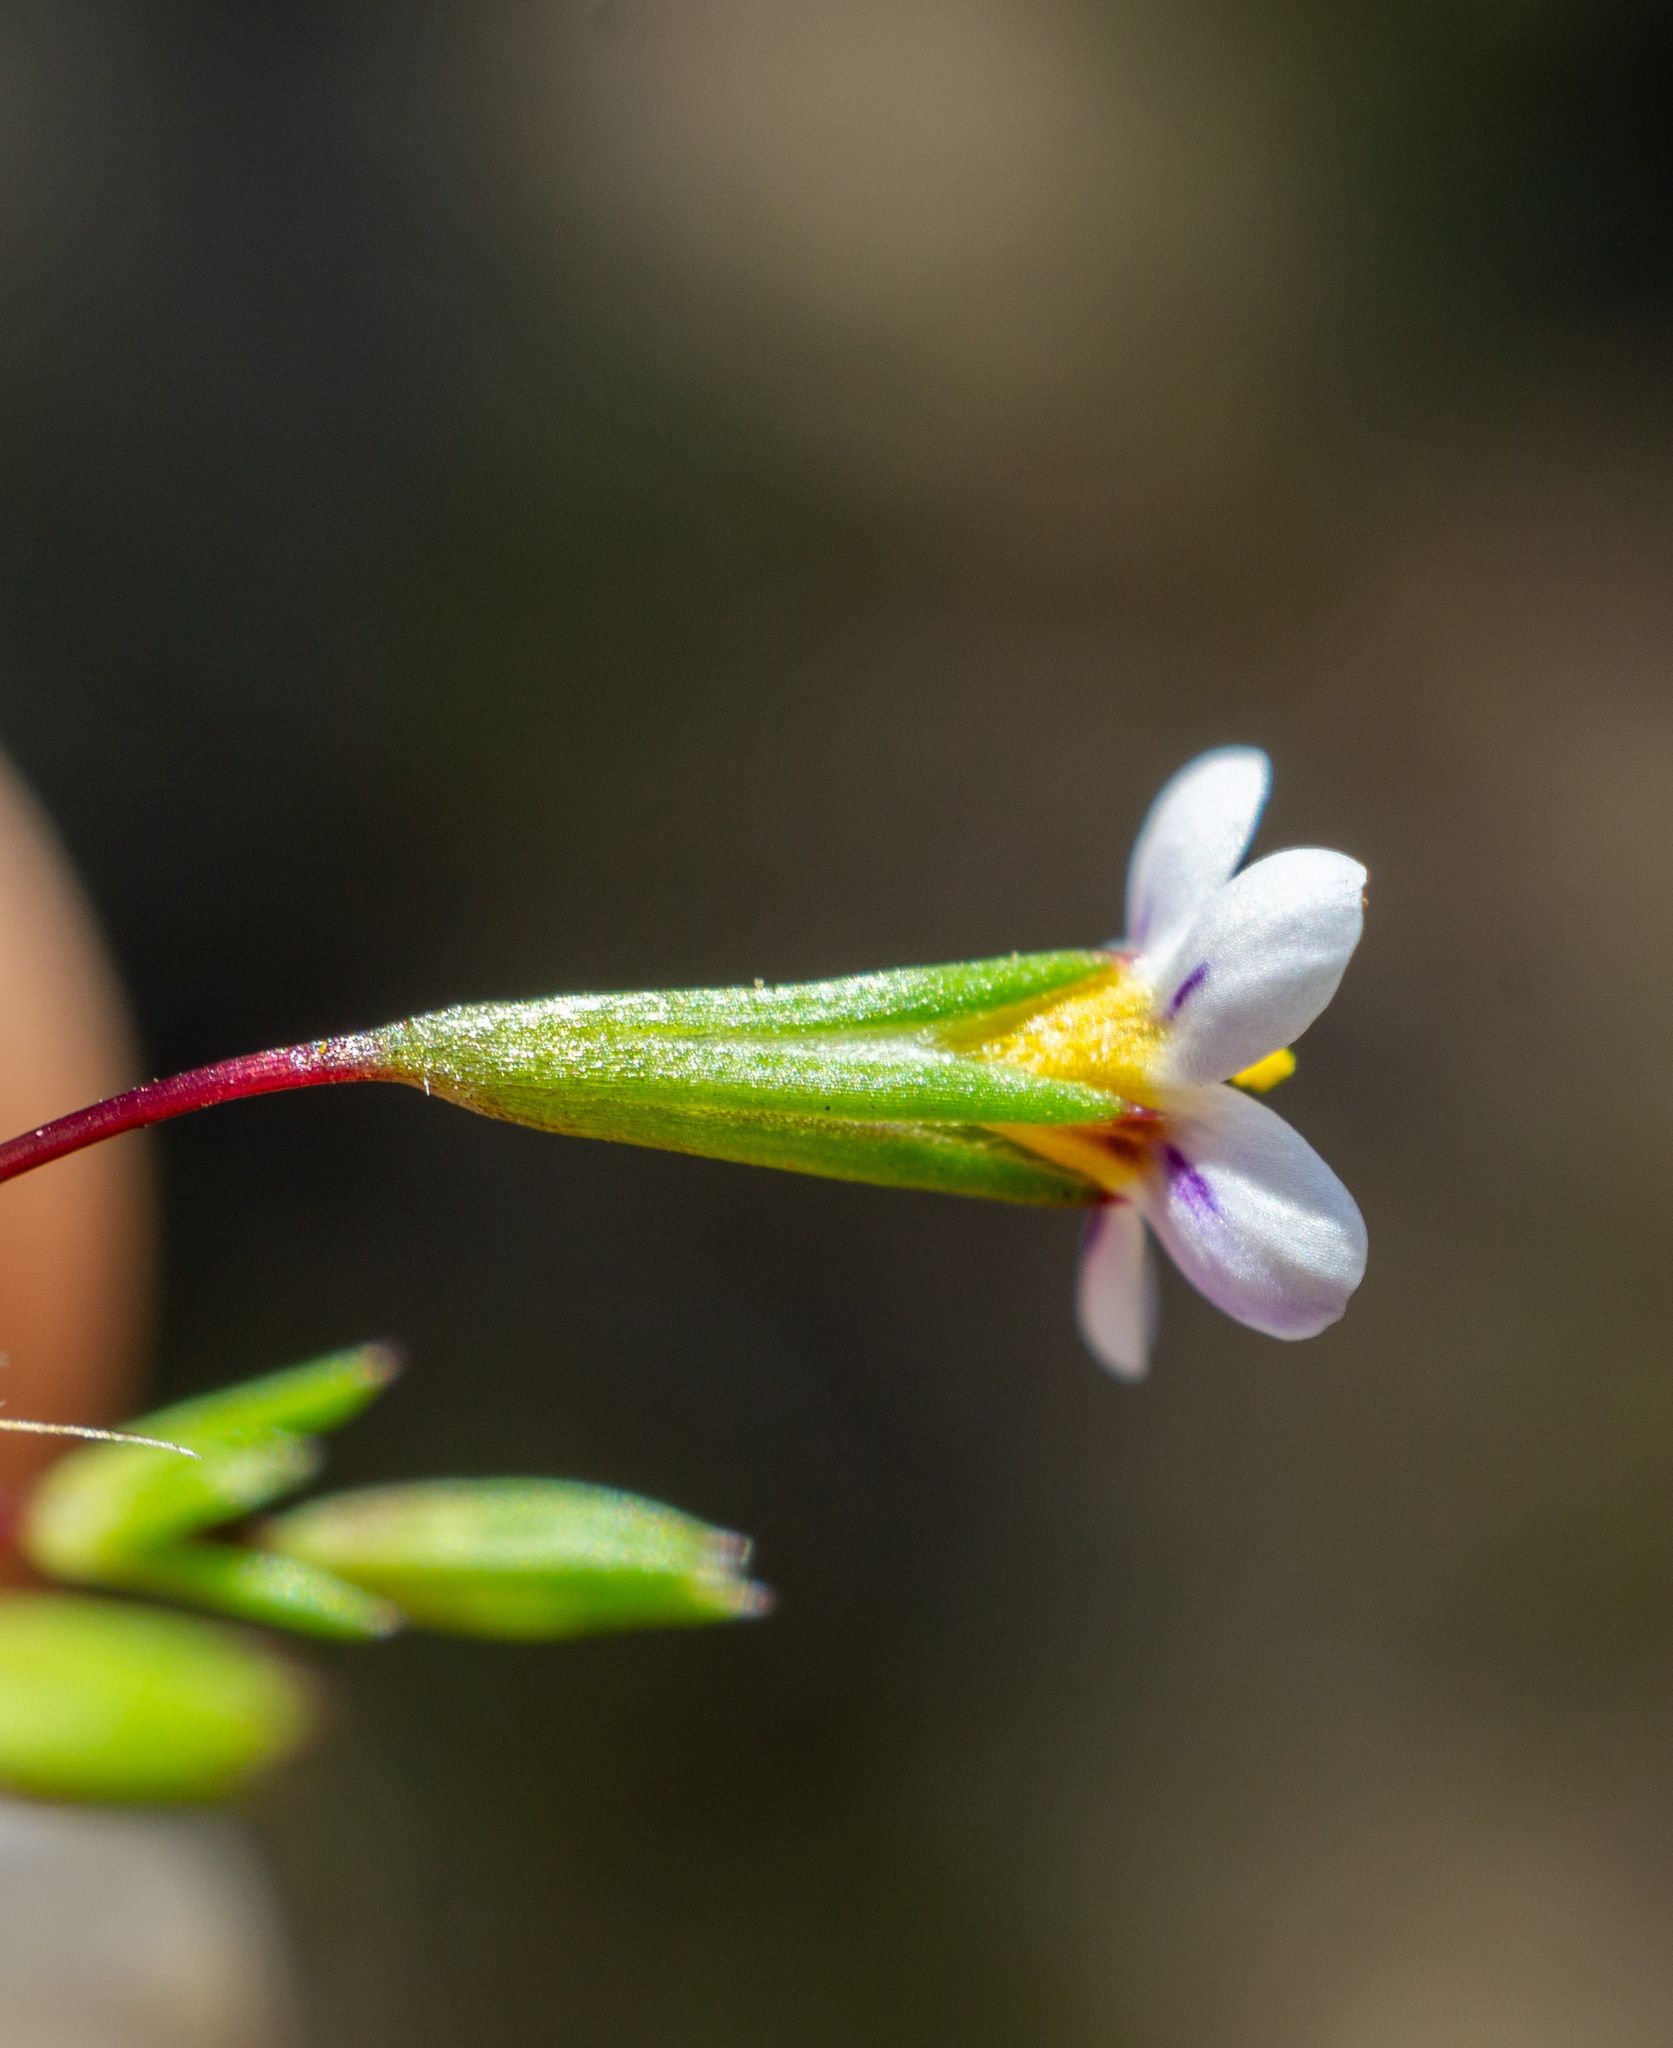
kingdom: Plantae
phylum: Tracheophyta
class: Magnoliopsida
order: Ericales
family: Polemoniaceae
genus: Leptosiphon
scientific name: Leptosiphon pygmaeus
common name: Pygmy linanthus
